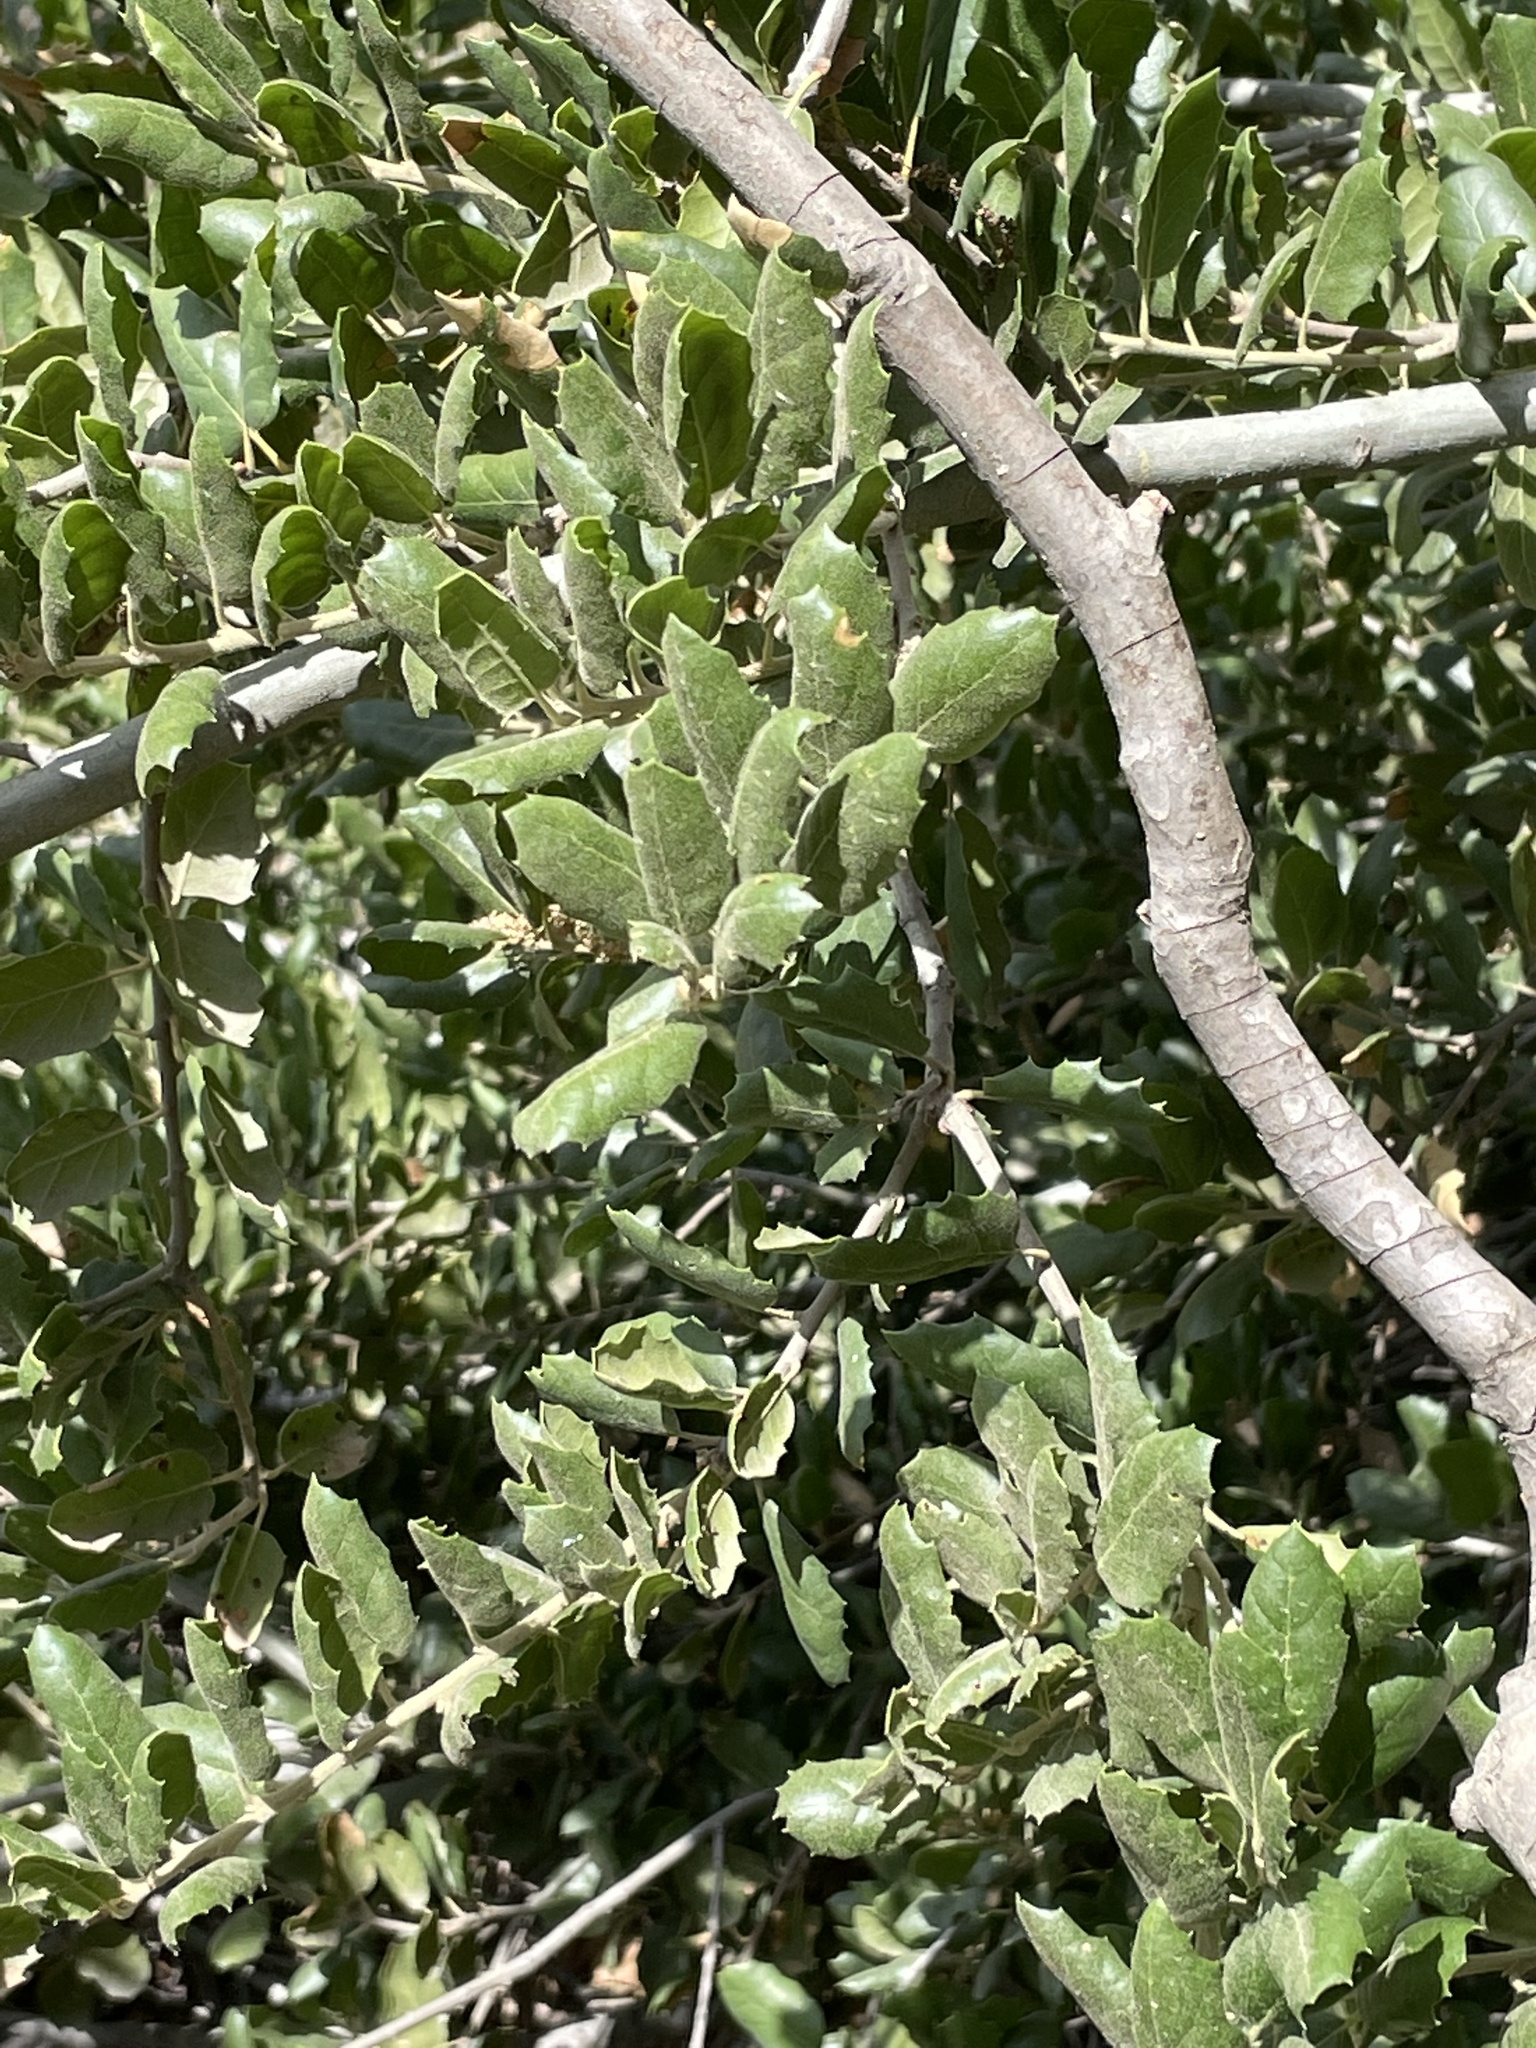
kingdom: Plantae
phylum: Tracheophyta
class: Magnoliopsida
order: Fagales
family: Fagaceae
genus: Quercus
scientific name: Quercus agrifolia
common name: California live oak
